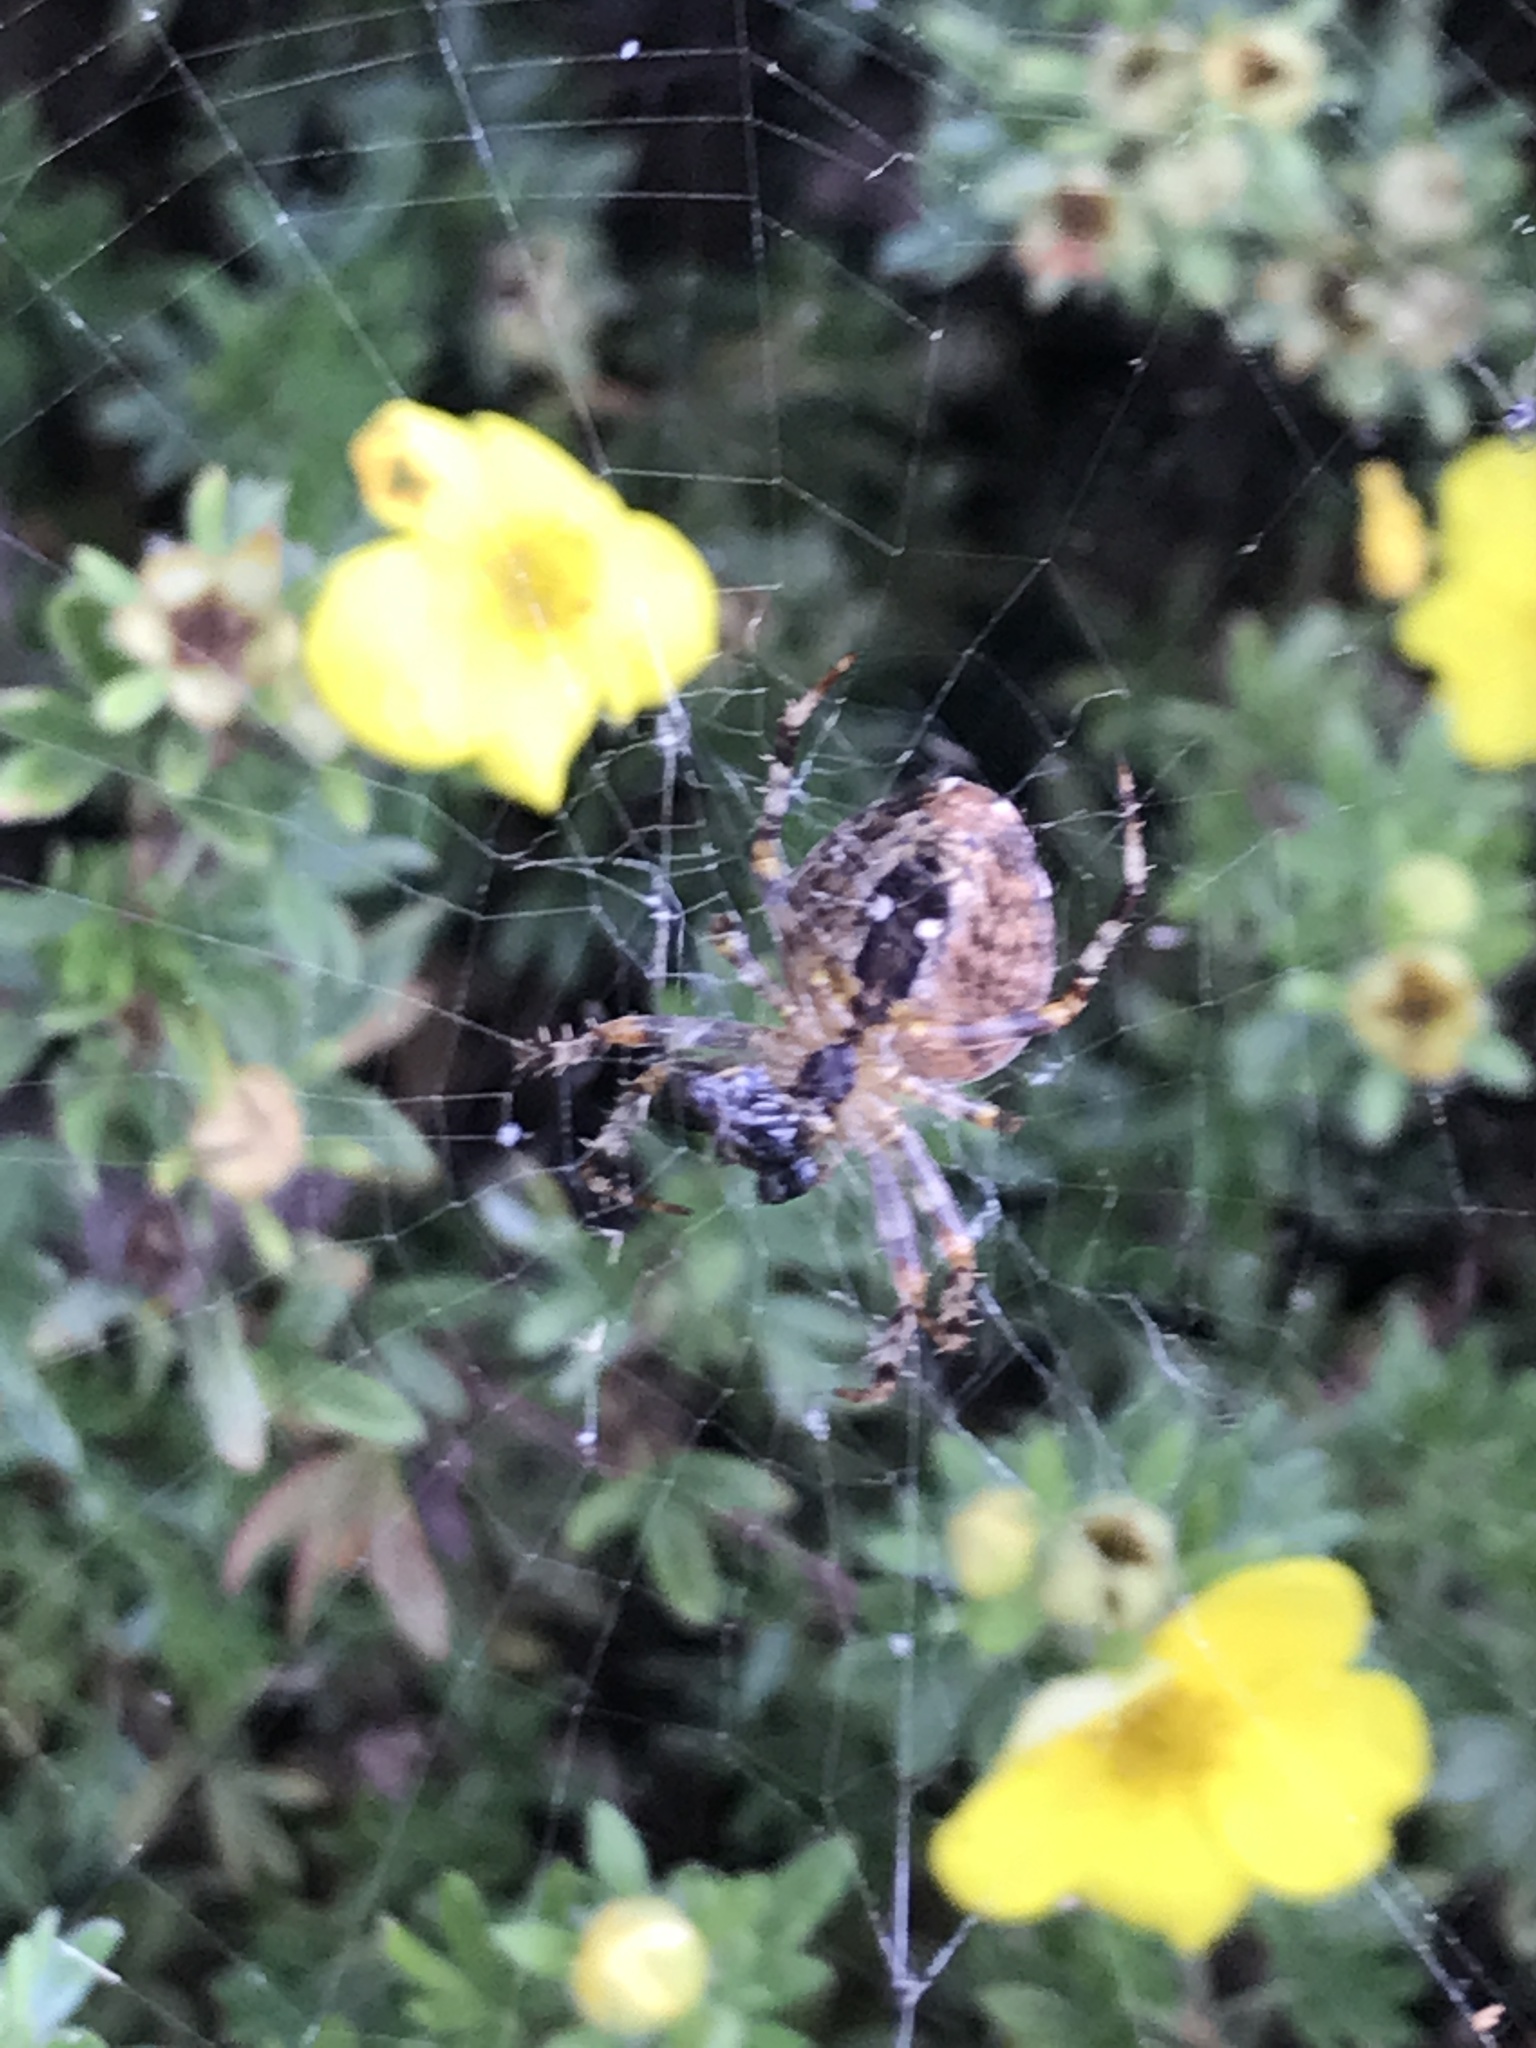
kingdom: Animalia
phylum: Arthropoda
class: Arachnida
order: Araneae
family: Araneidae
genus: Araneus
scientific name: Araneus diadematus
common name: Cross orbweaver
